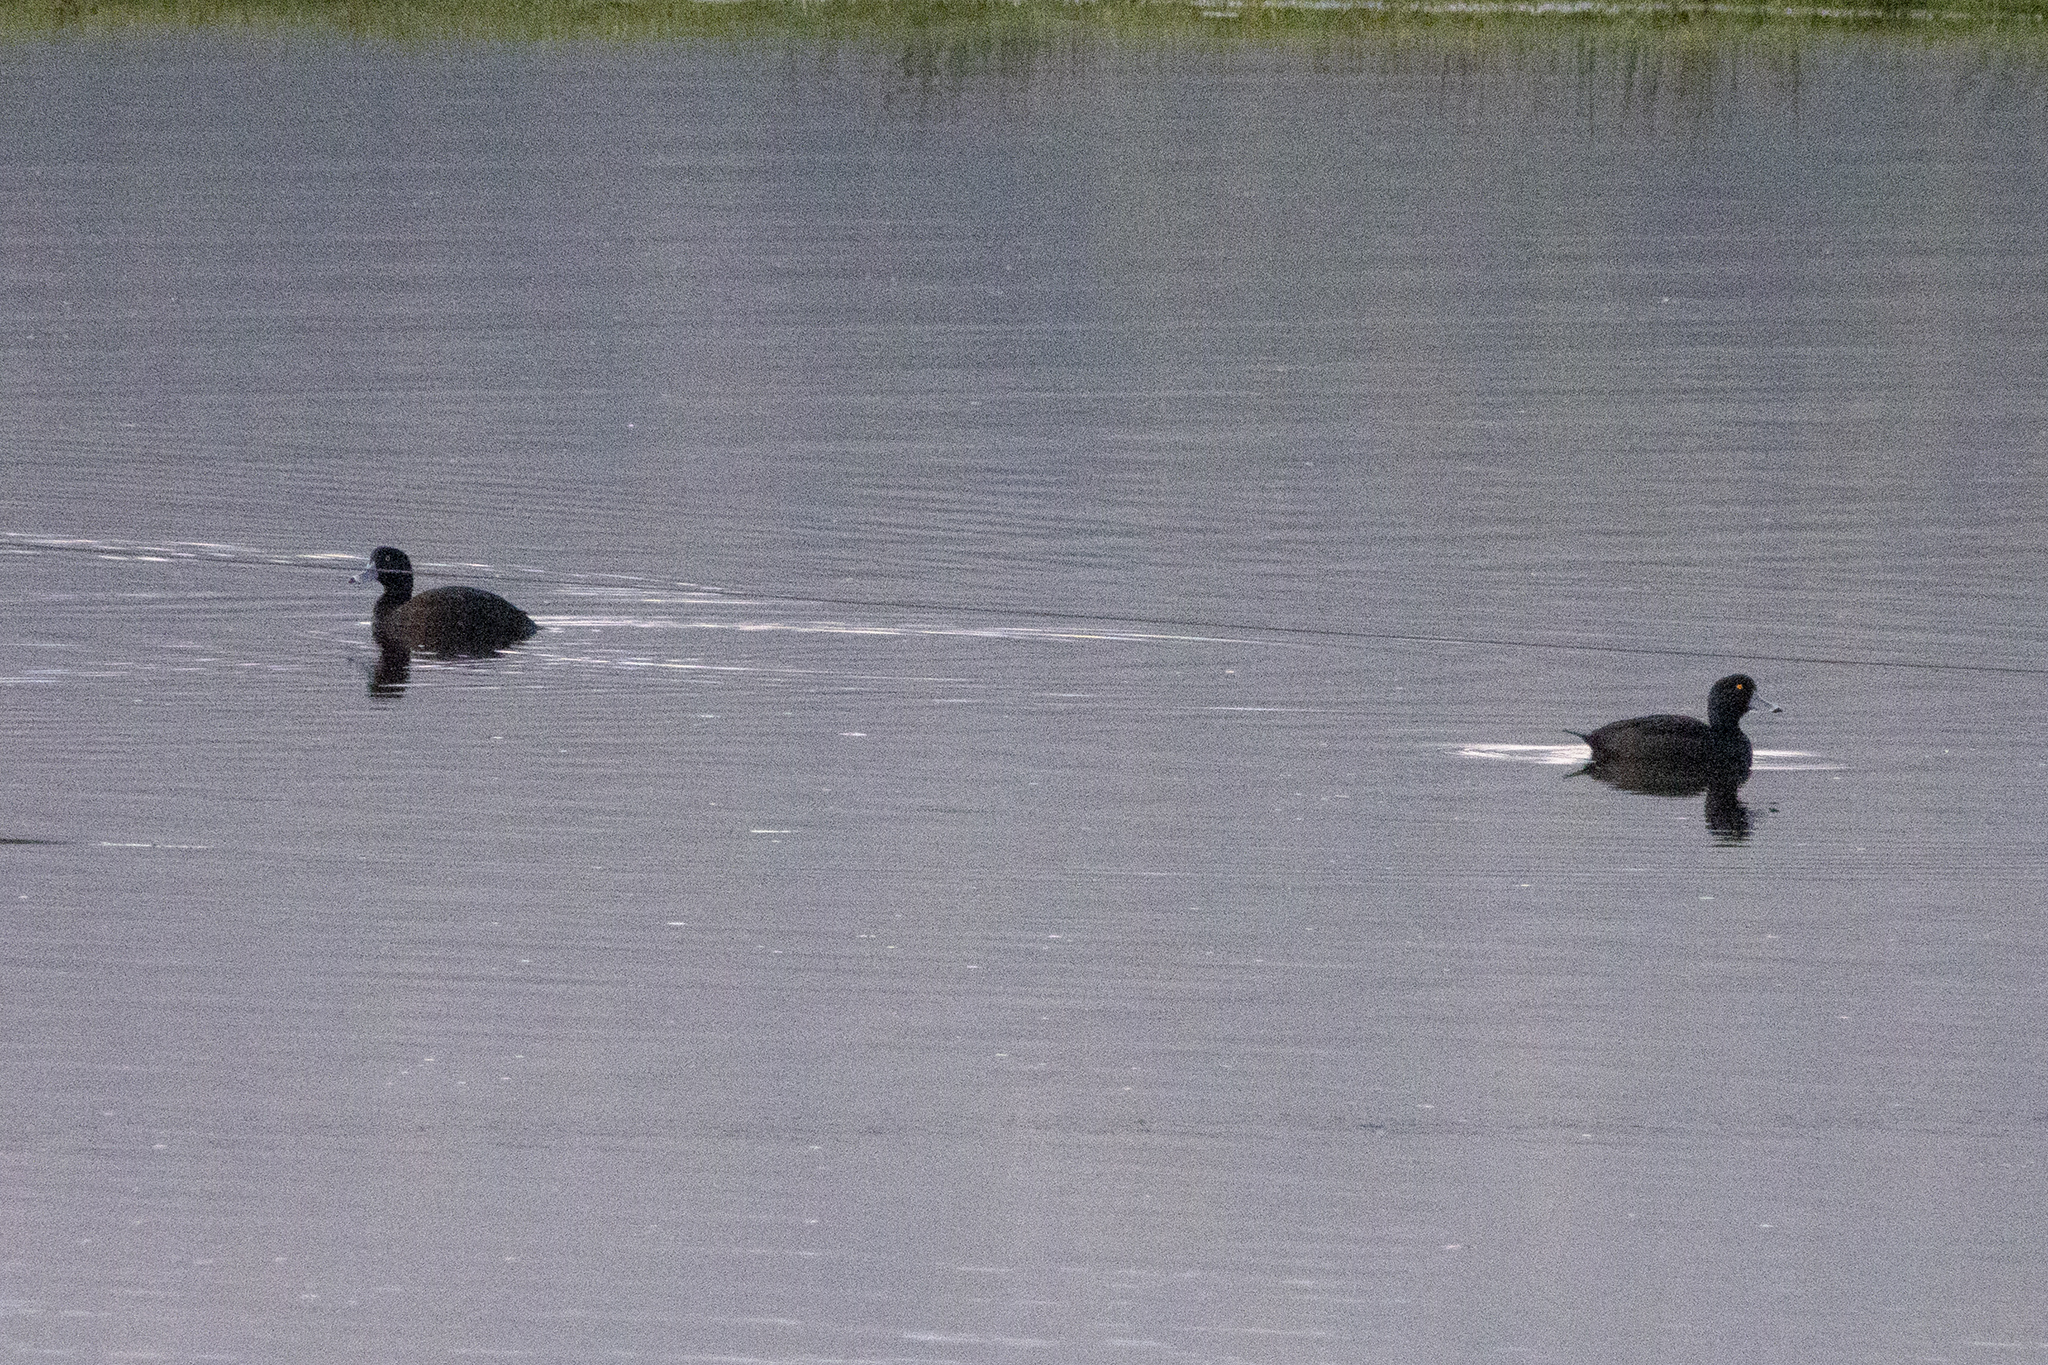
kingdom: Animalia
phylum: Chordata
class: Aves
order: Anseriformes
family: Anatidae
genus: Aythya
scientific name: Aythya novaeseelandiae
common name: New zealand scaup
